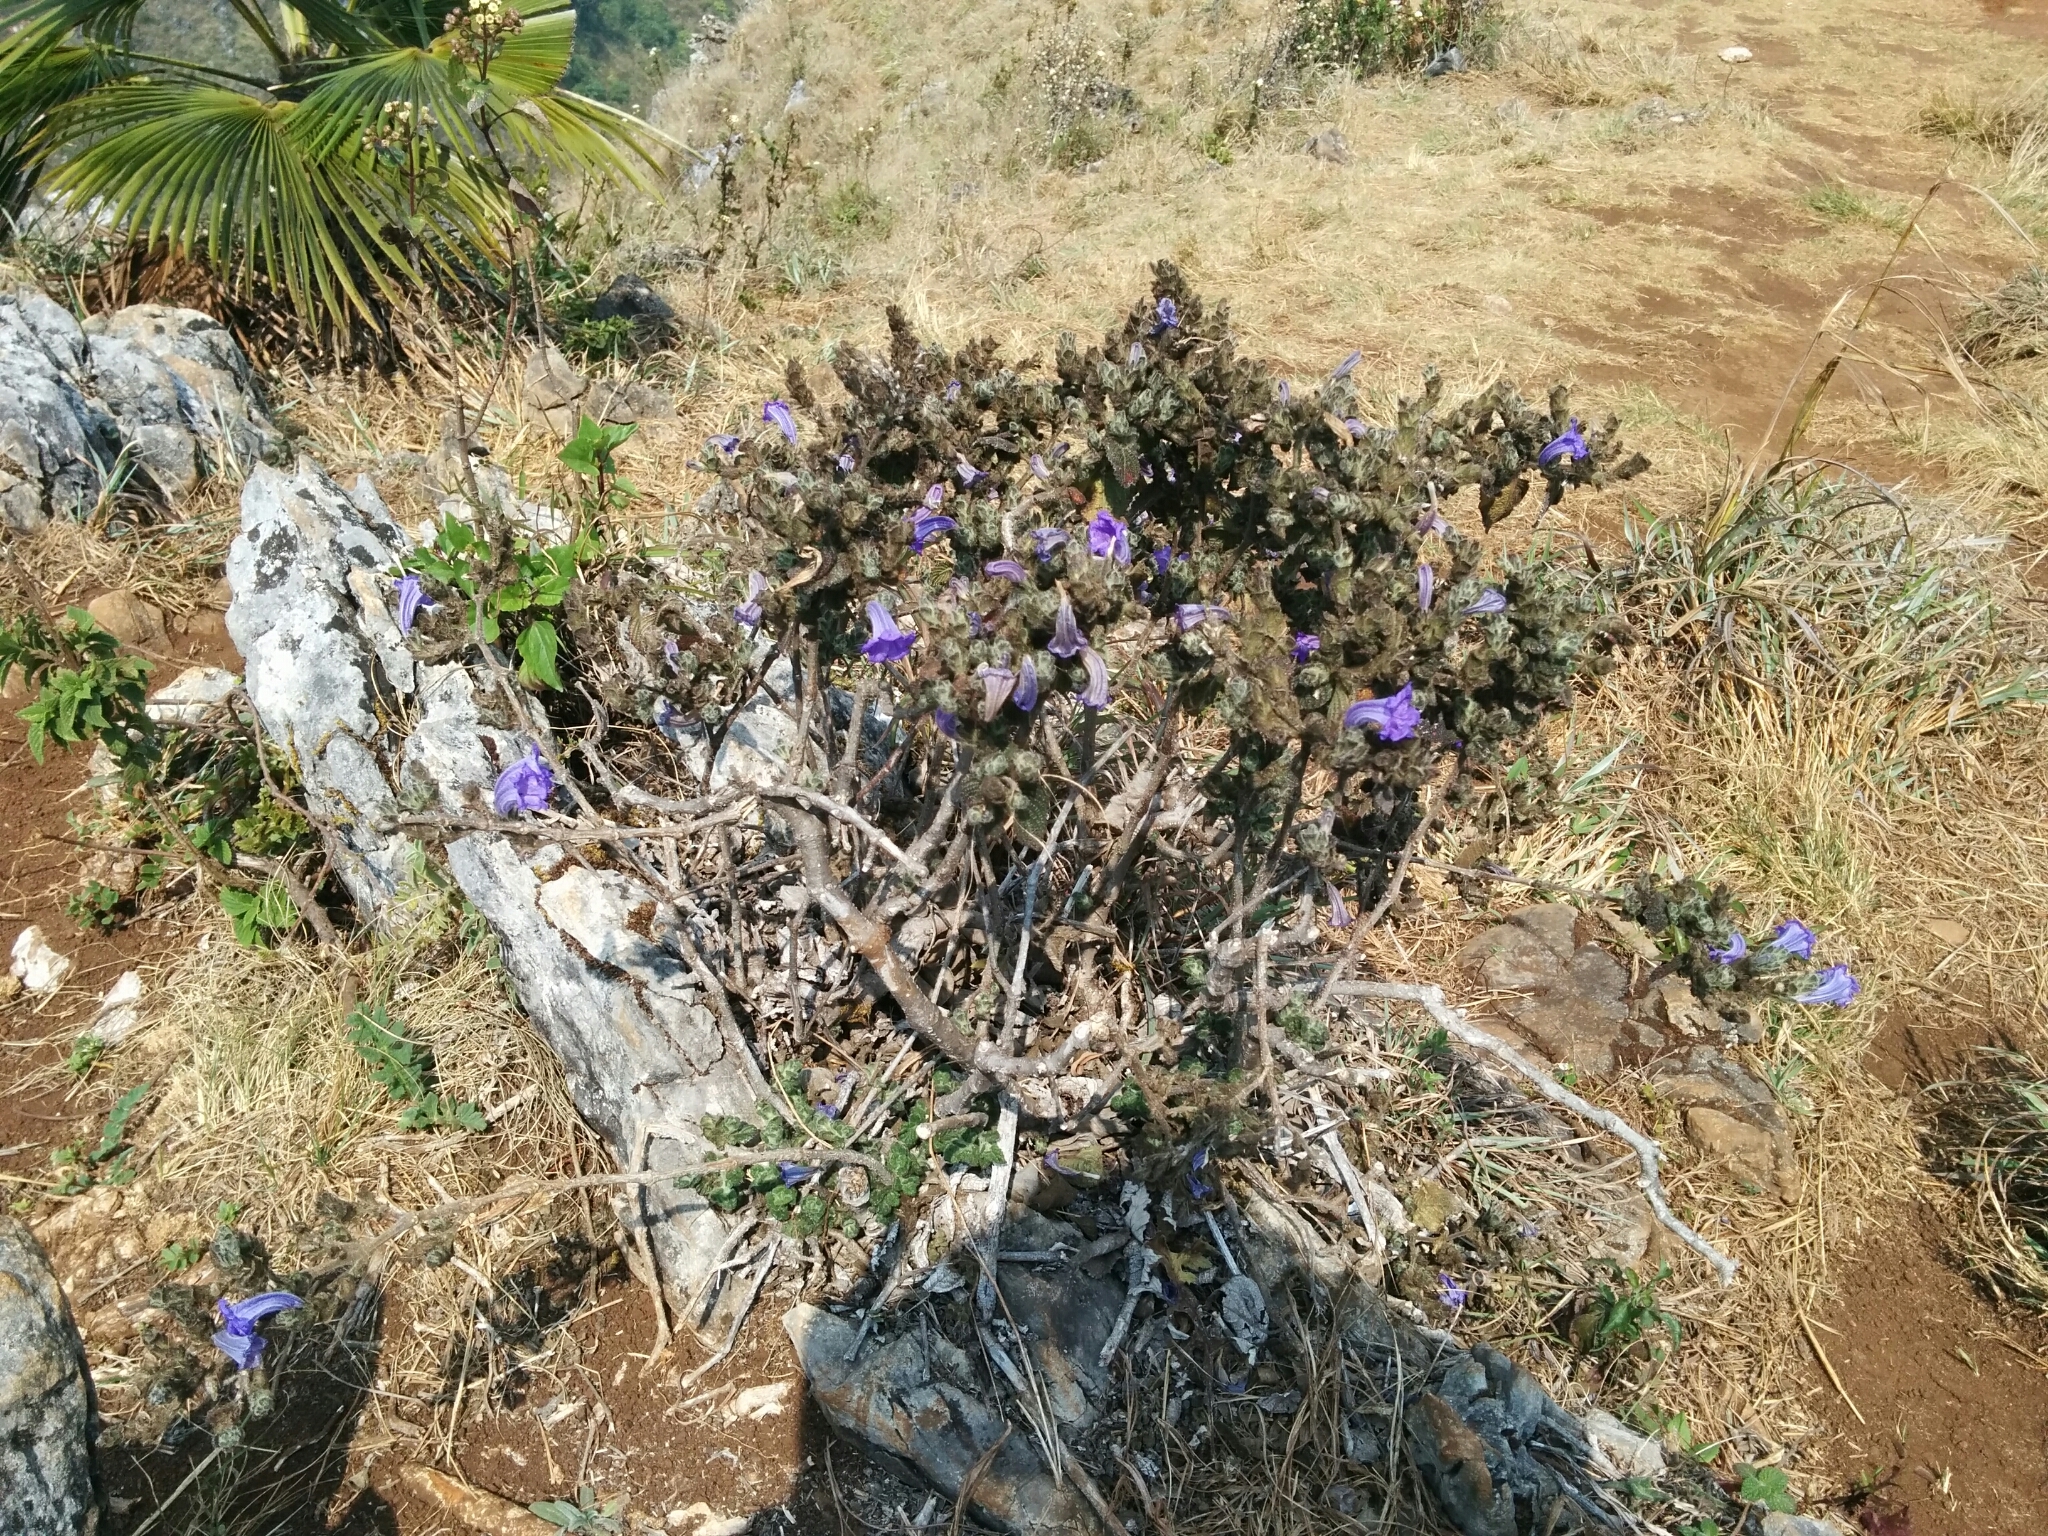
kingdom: Plantae
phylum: Tracheophyta
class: Magnoliopsida
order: Lamiales
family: Acanthaceae
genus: Strobilanthes
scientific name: Strobilanthes chiangdaoensis
